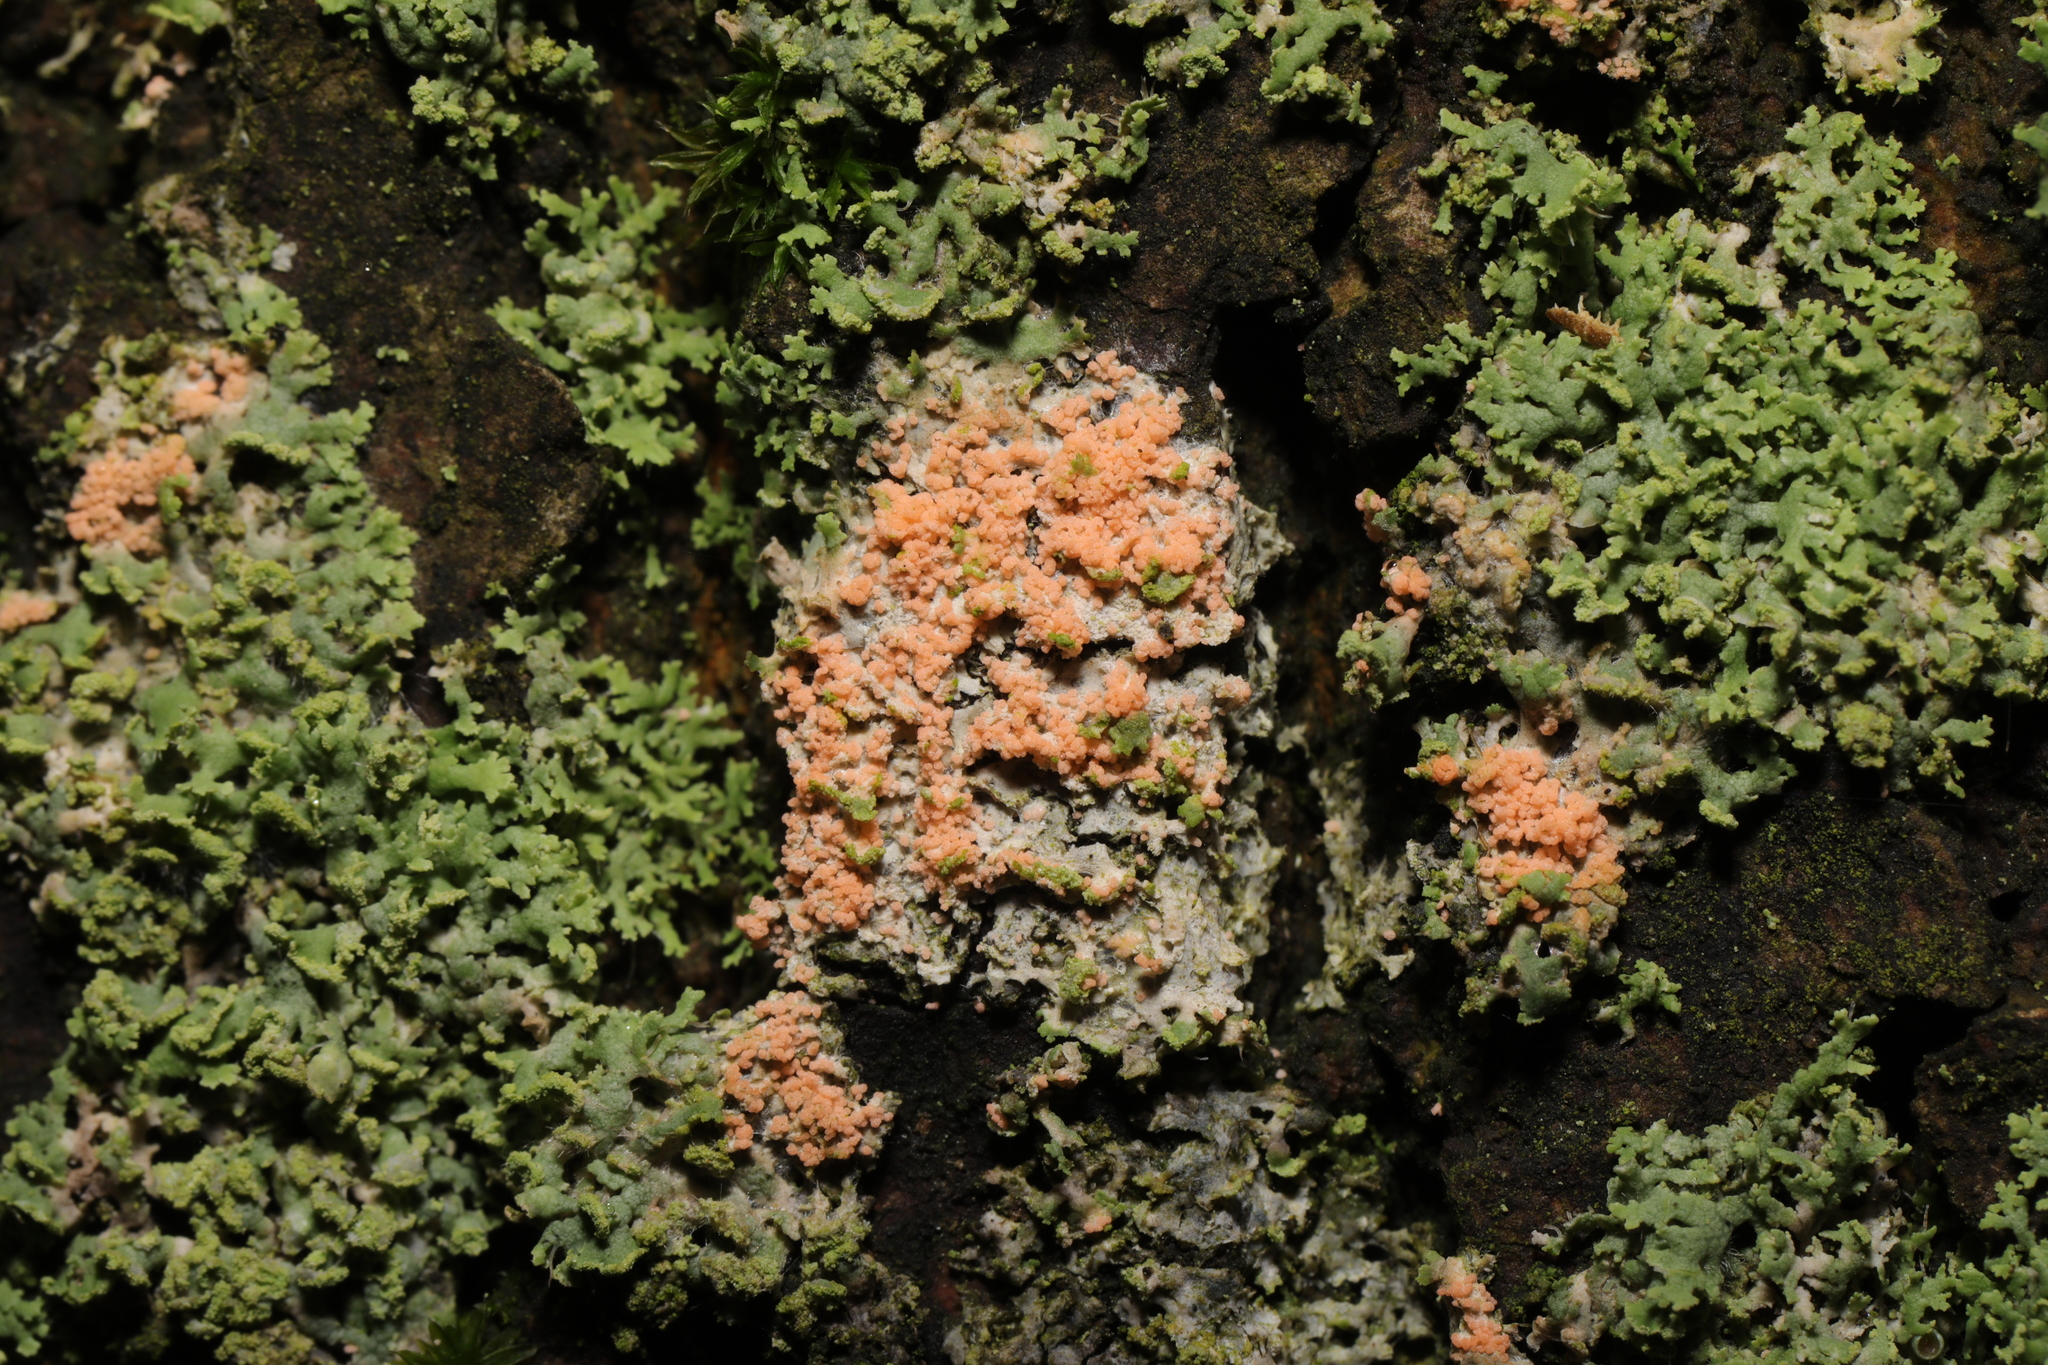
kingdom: Fungi
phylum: Basidiomycota
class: Agaricomycetes
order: Corticiales
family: Corticiaceae
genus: Erythricium
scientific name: Erythricium aurantiacum
